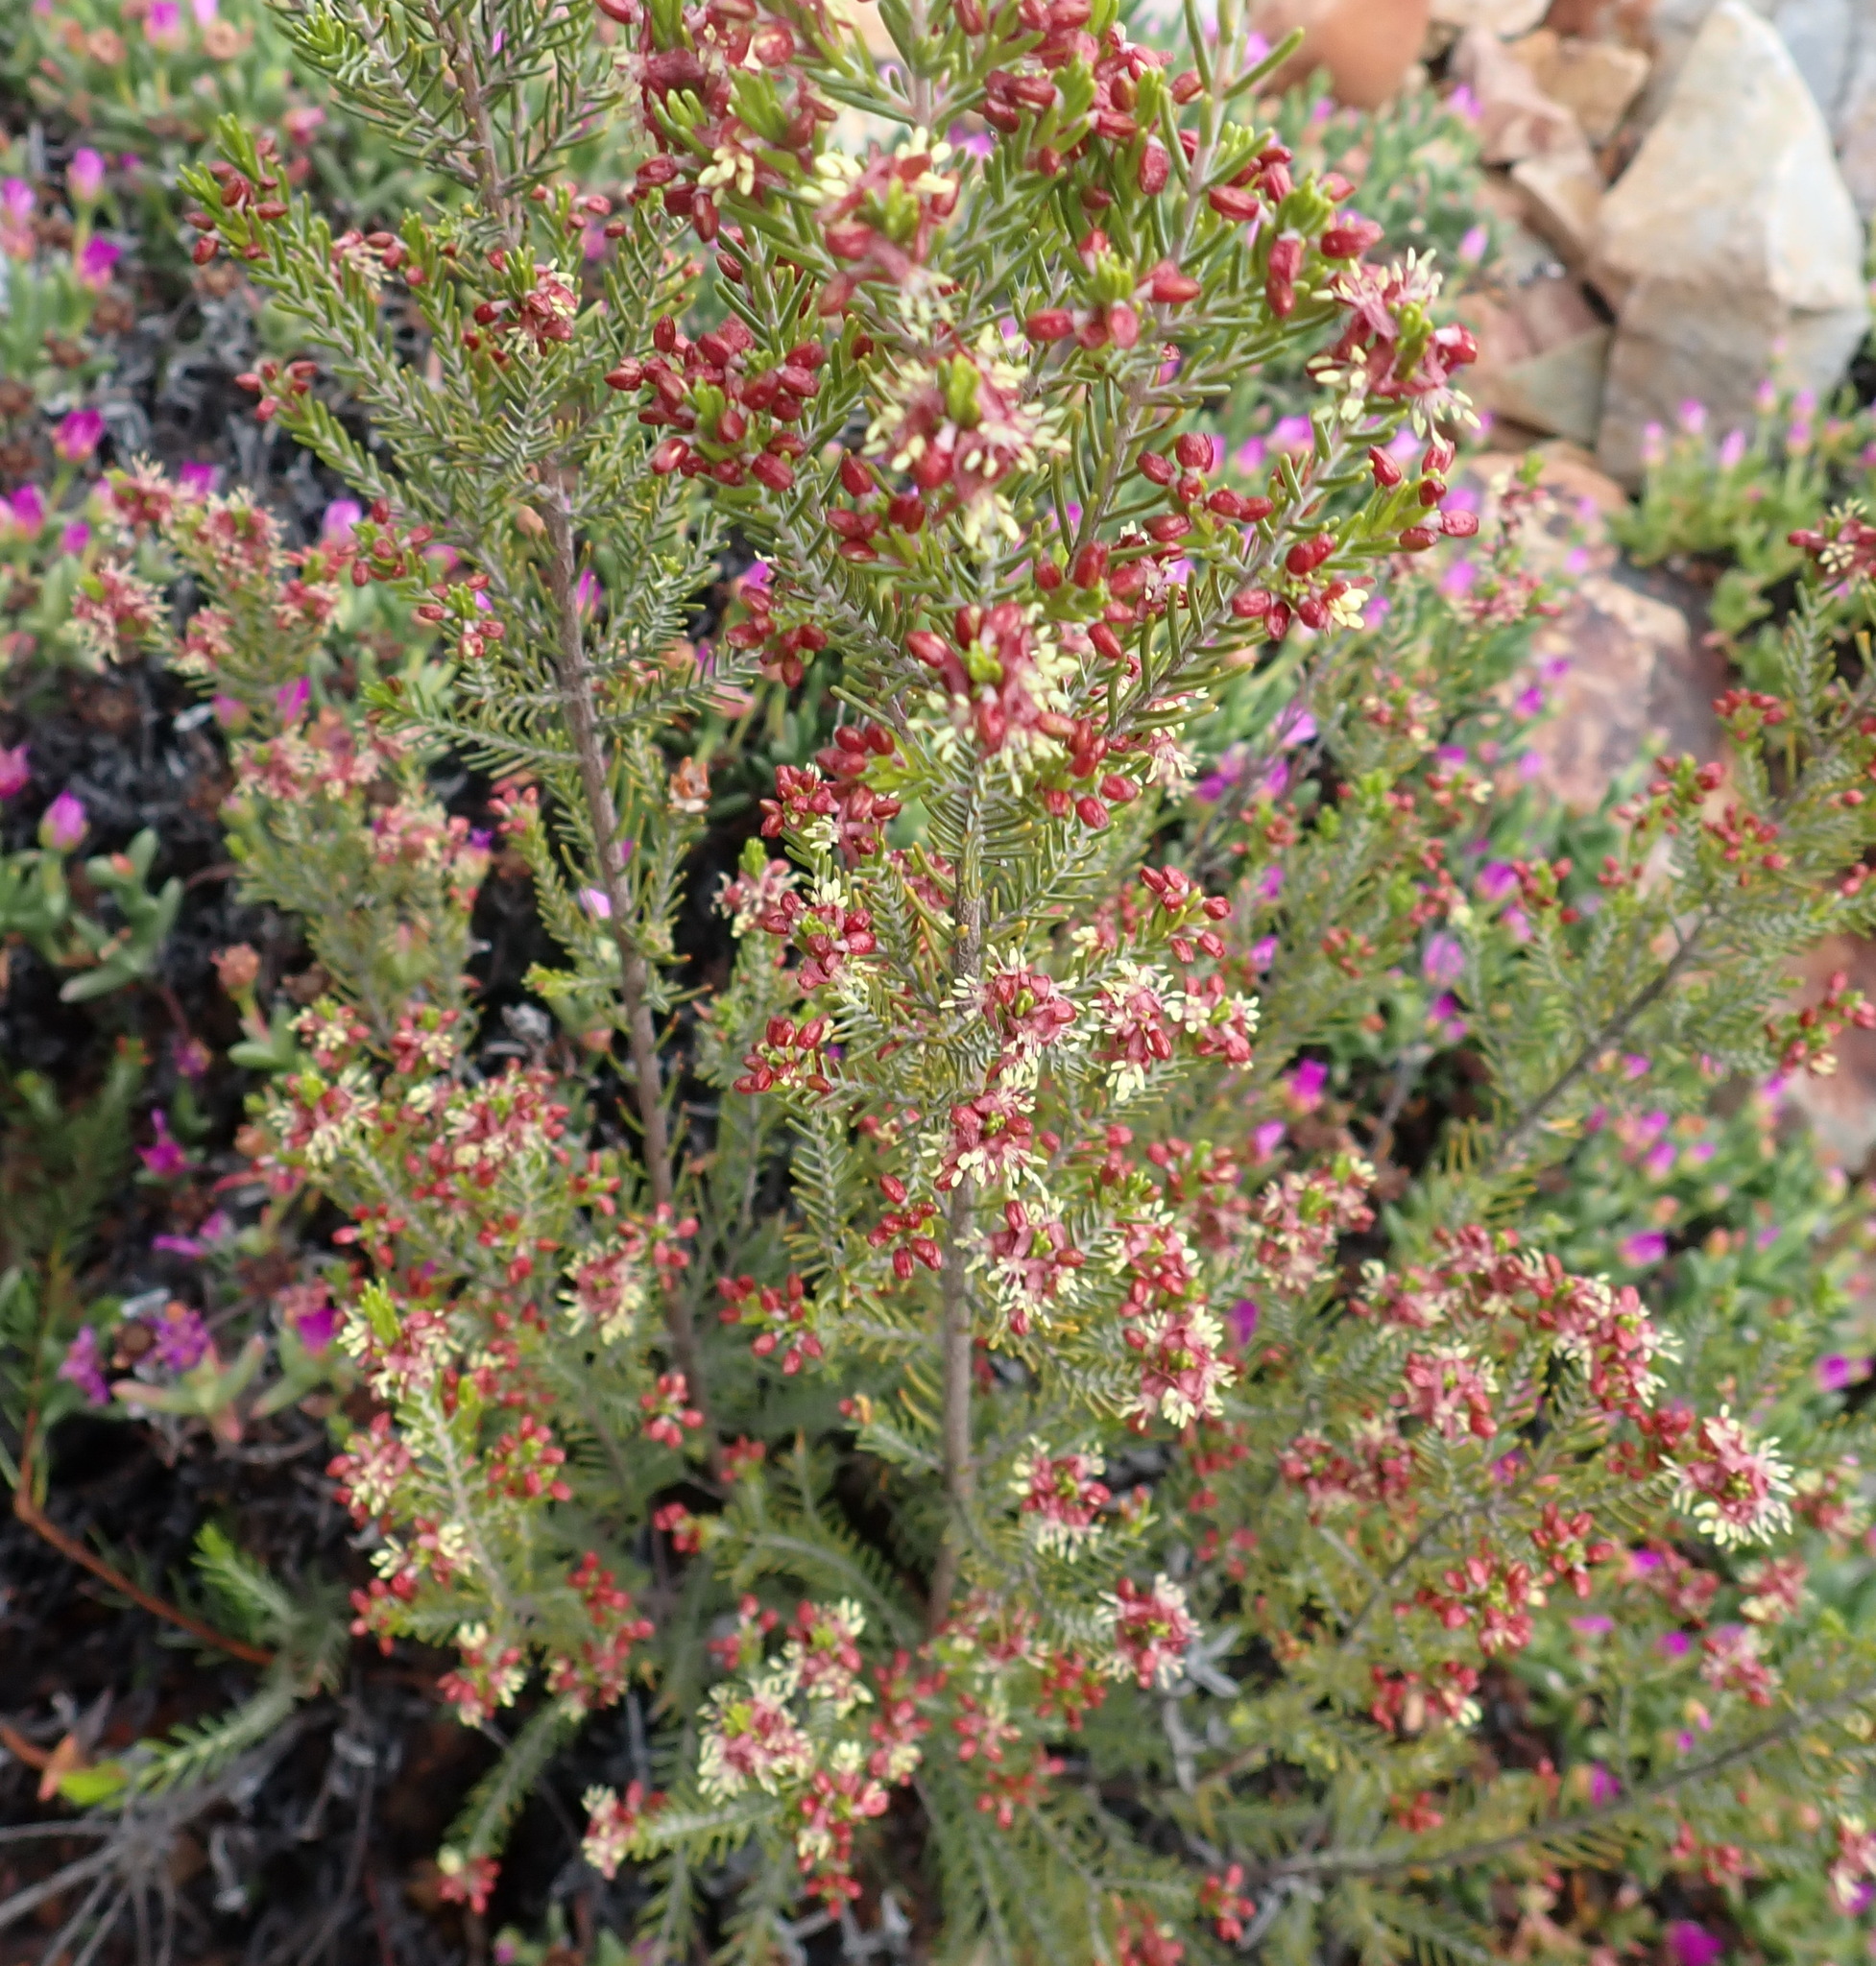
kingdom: Plantae
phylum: Tracheophyta
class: Magnoliopsida
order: Malvales
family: Thymelaeaceae
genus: Passerina
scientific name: Passerina obtusifolia
